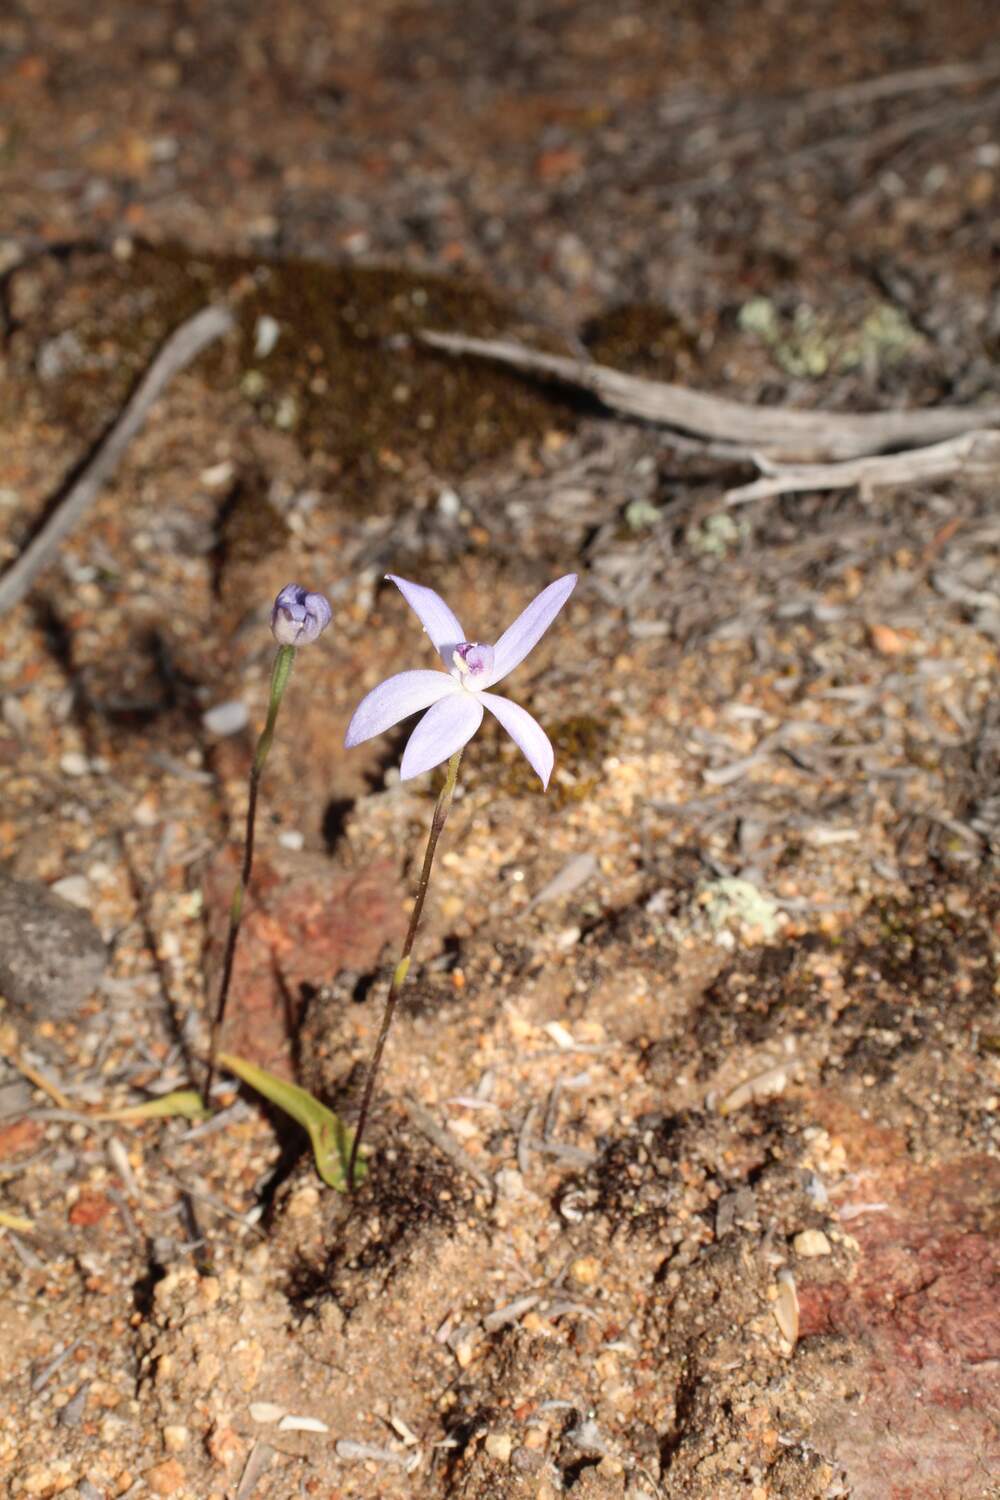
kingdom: Plantae
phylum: Tracheophyta
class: Liliopsida
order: Asparagales
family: Orchidaceae
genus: Caladenia
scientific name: Caladenia amplexans
